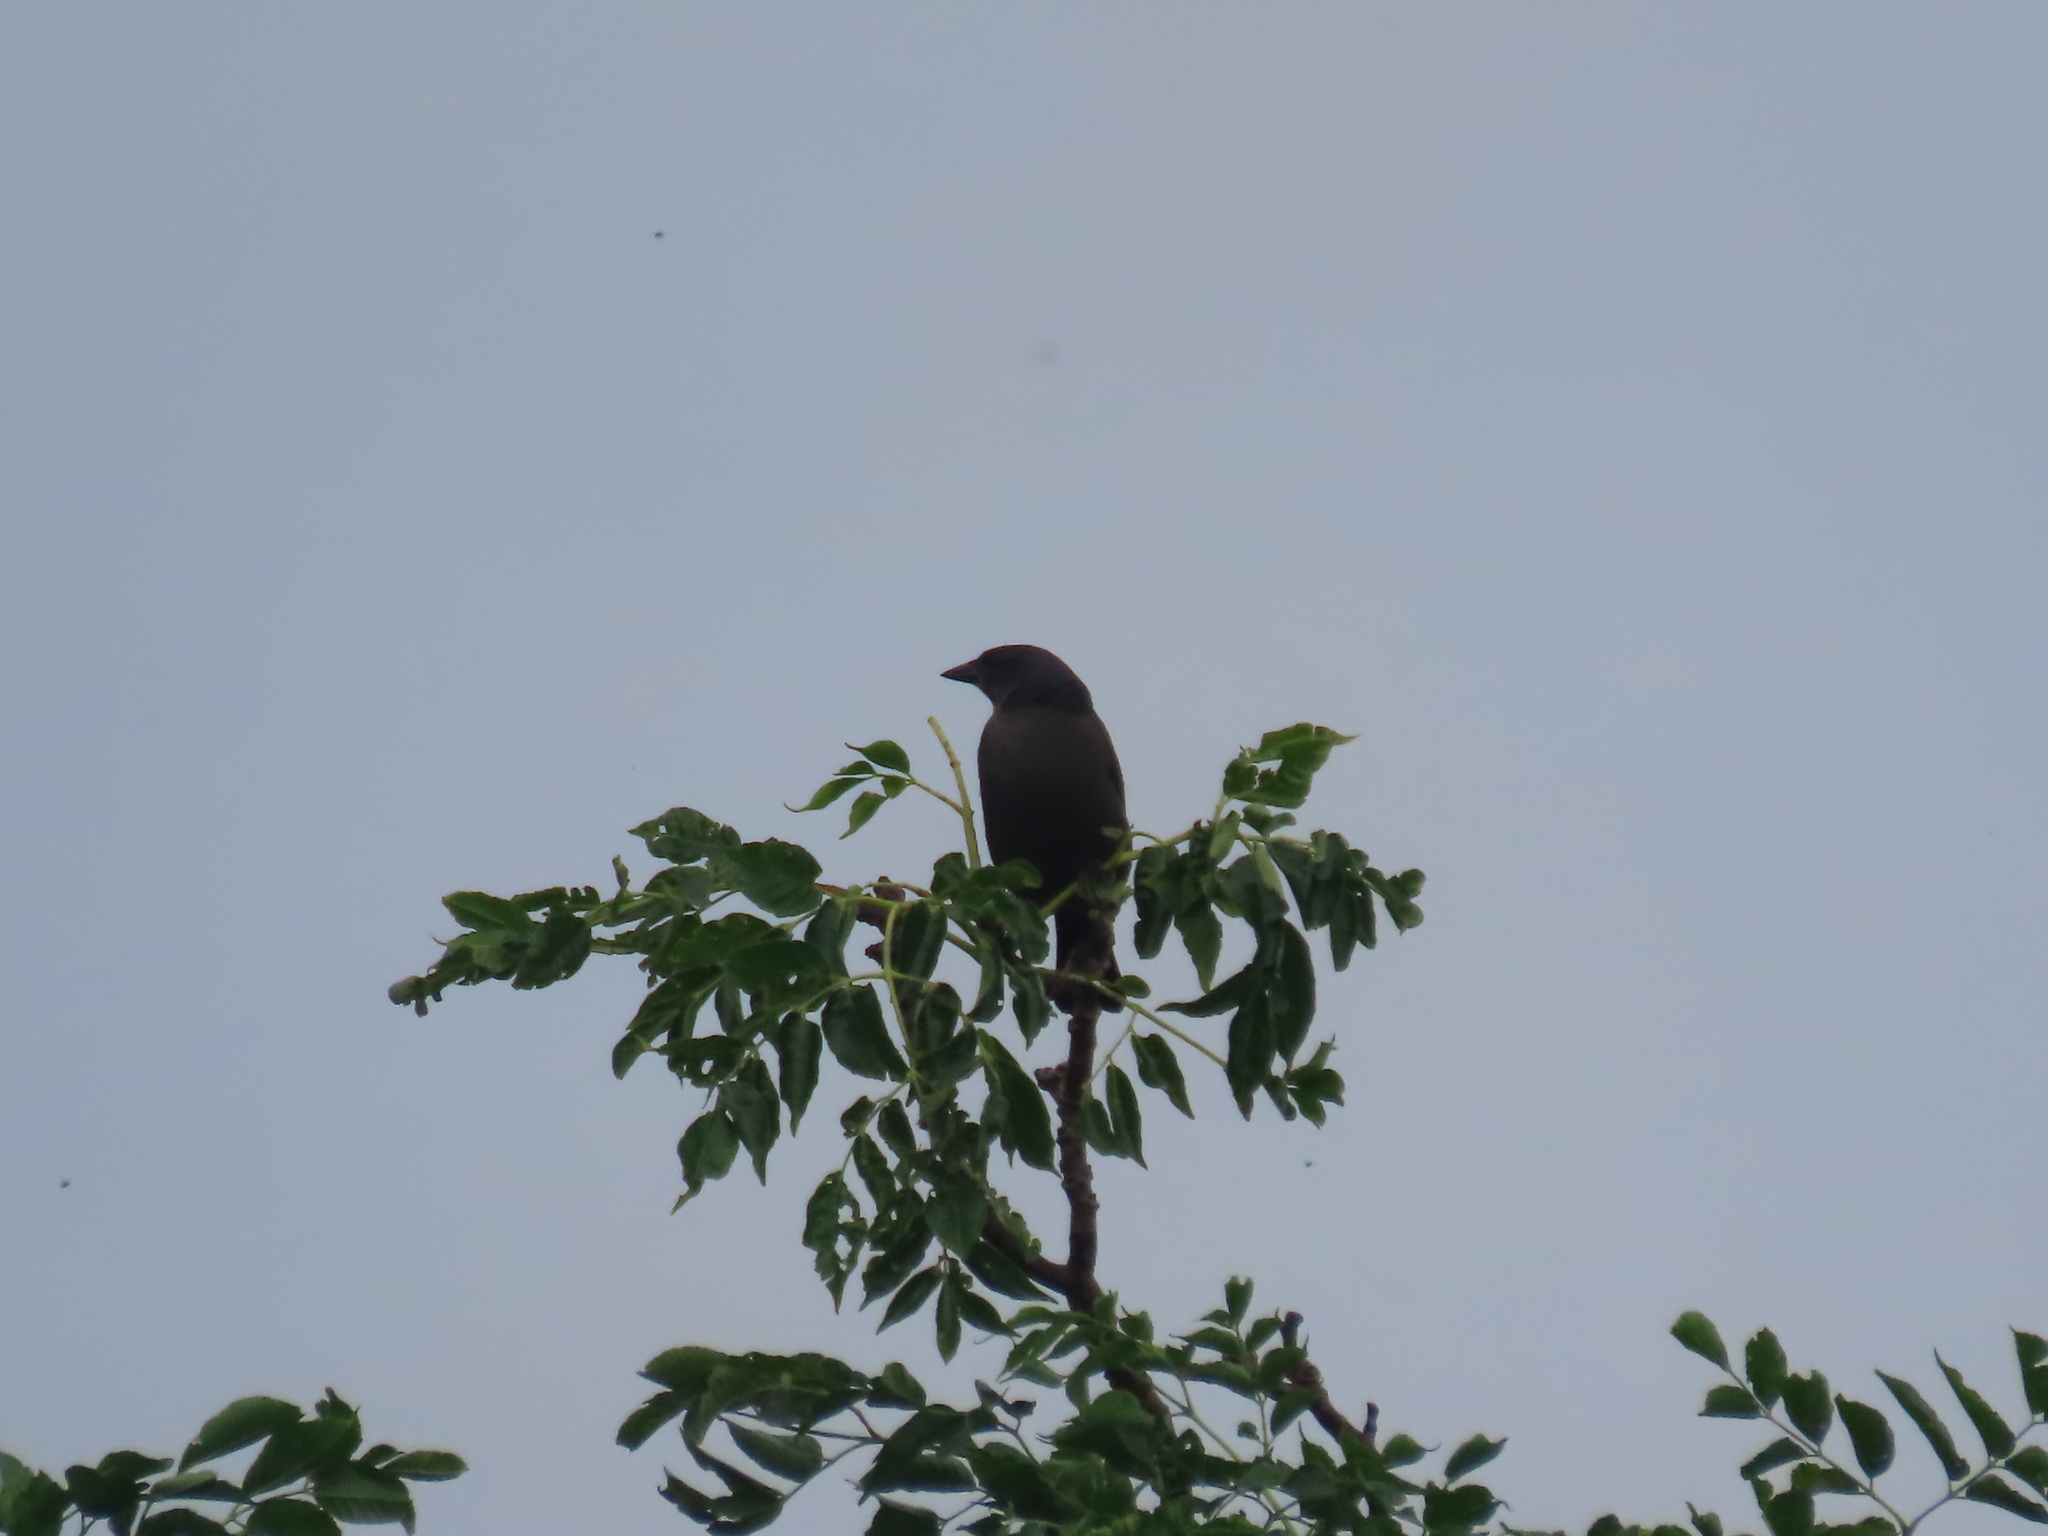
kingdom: Animalia
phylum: Chordata
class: Aves
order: Passeriformes
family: Icteridae
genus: Molothrus
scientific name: Molothrus bonariensis
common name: Shiny cowbird
